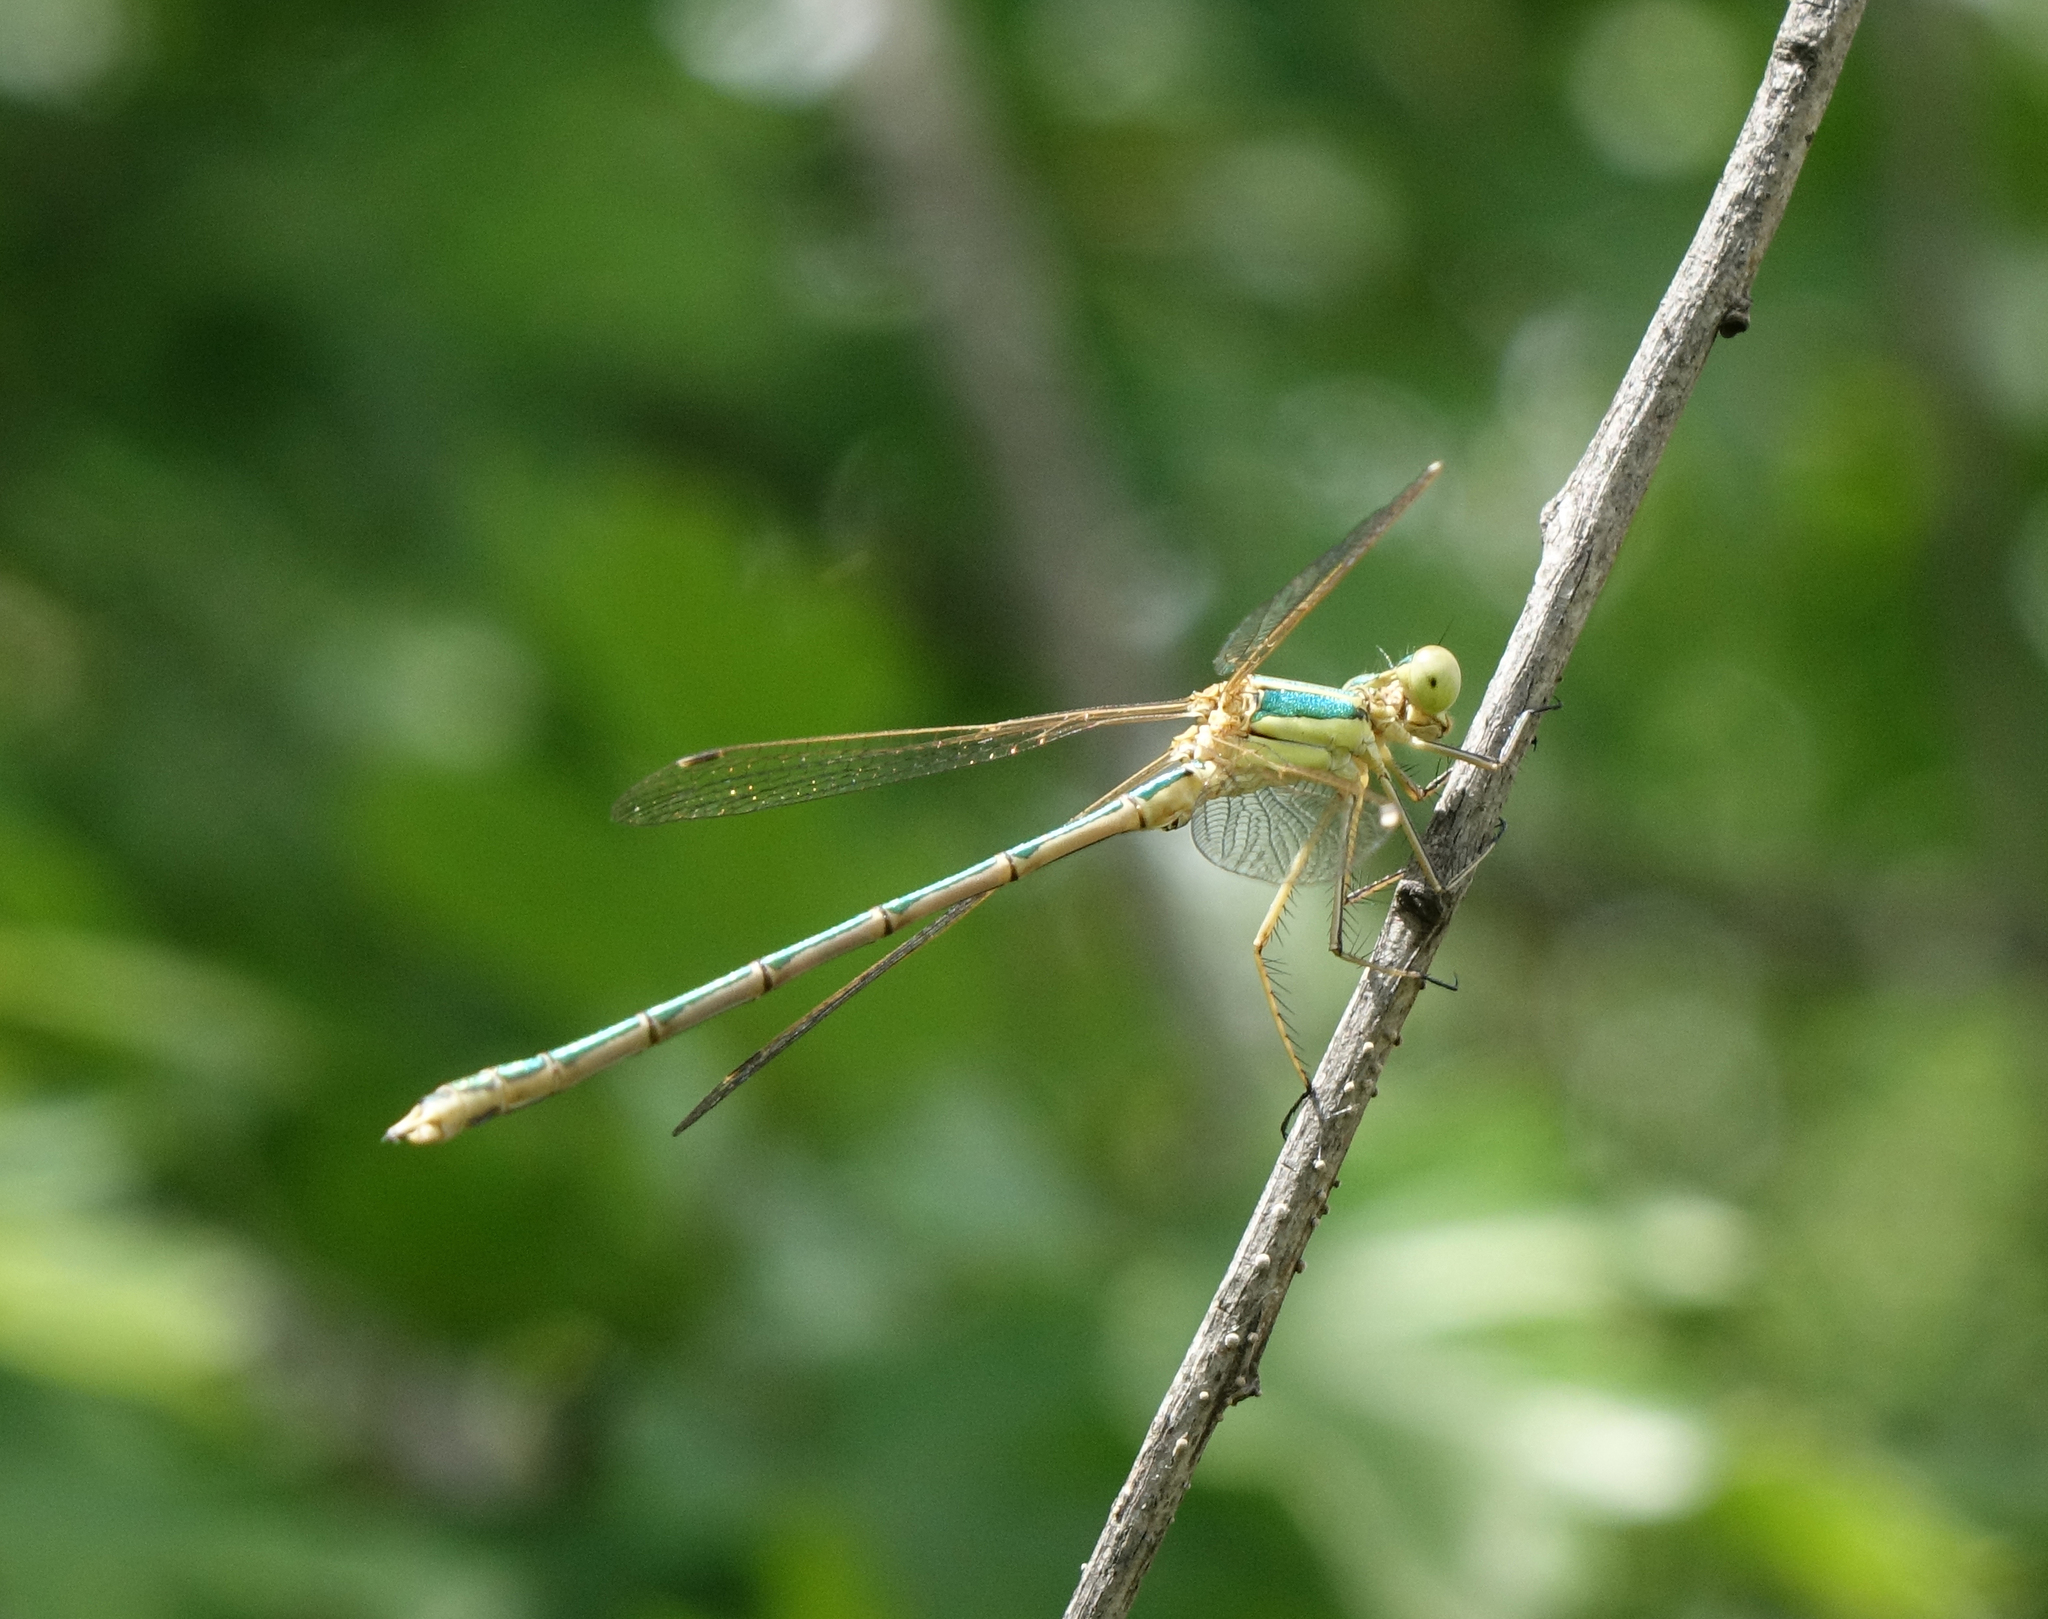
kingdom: Animalia
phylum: Arthropoda
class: Insecta
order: Odonata
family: Lestidae
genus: Lestes
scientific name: Lestes barbarus
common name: Migrant spreadwing
